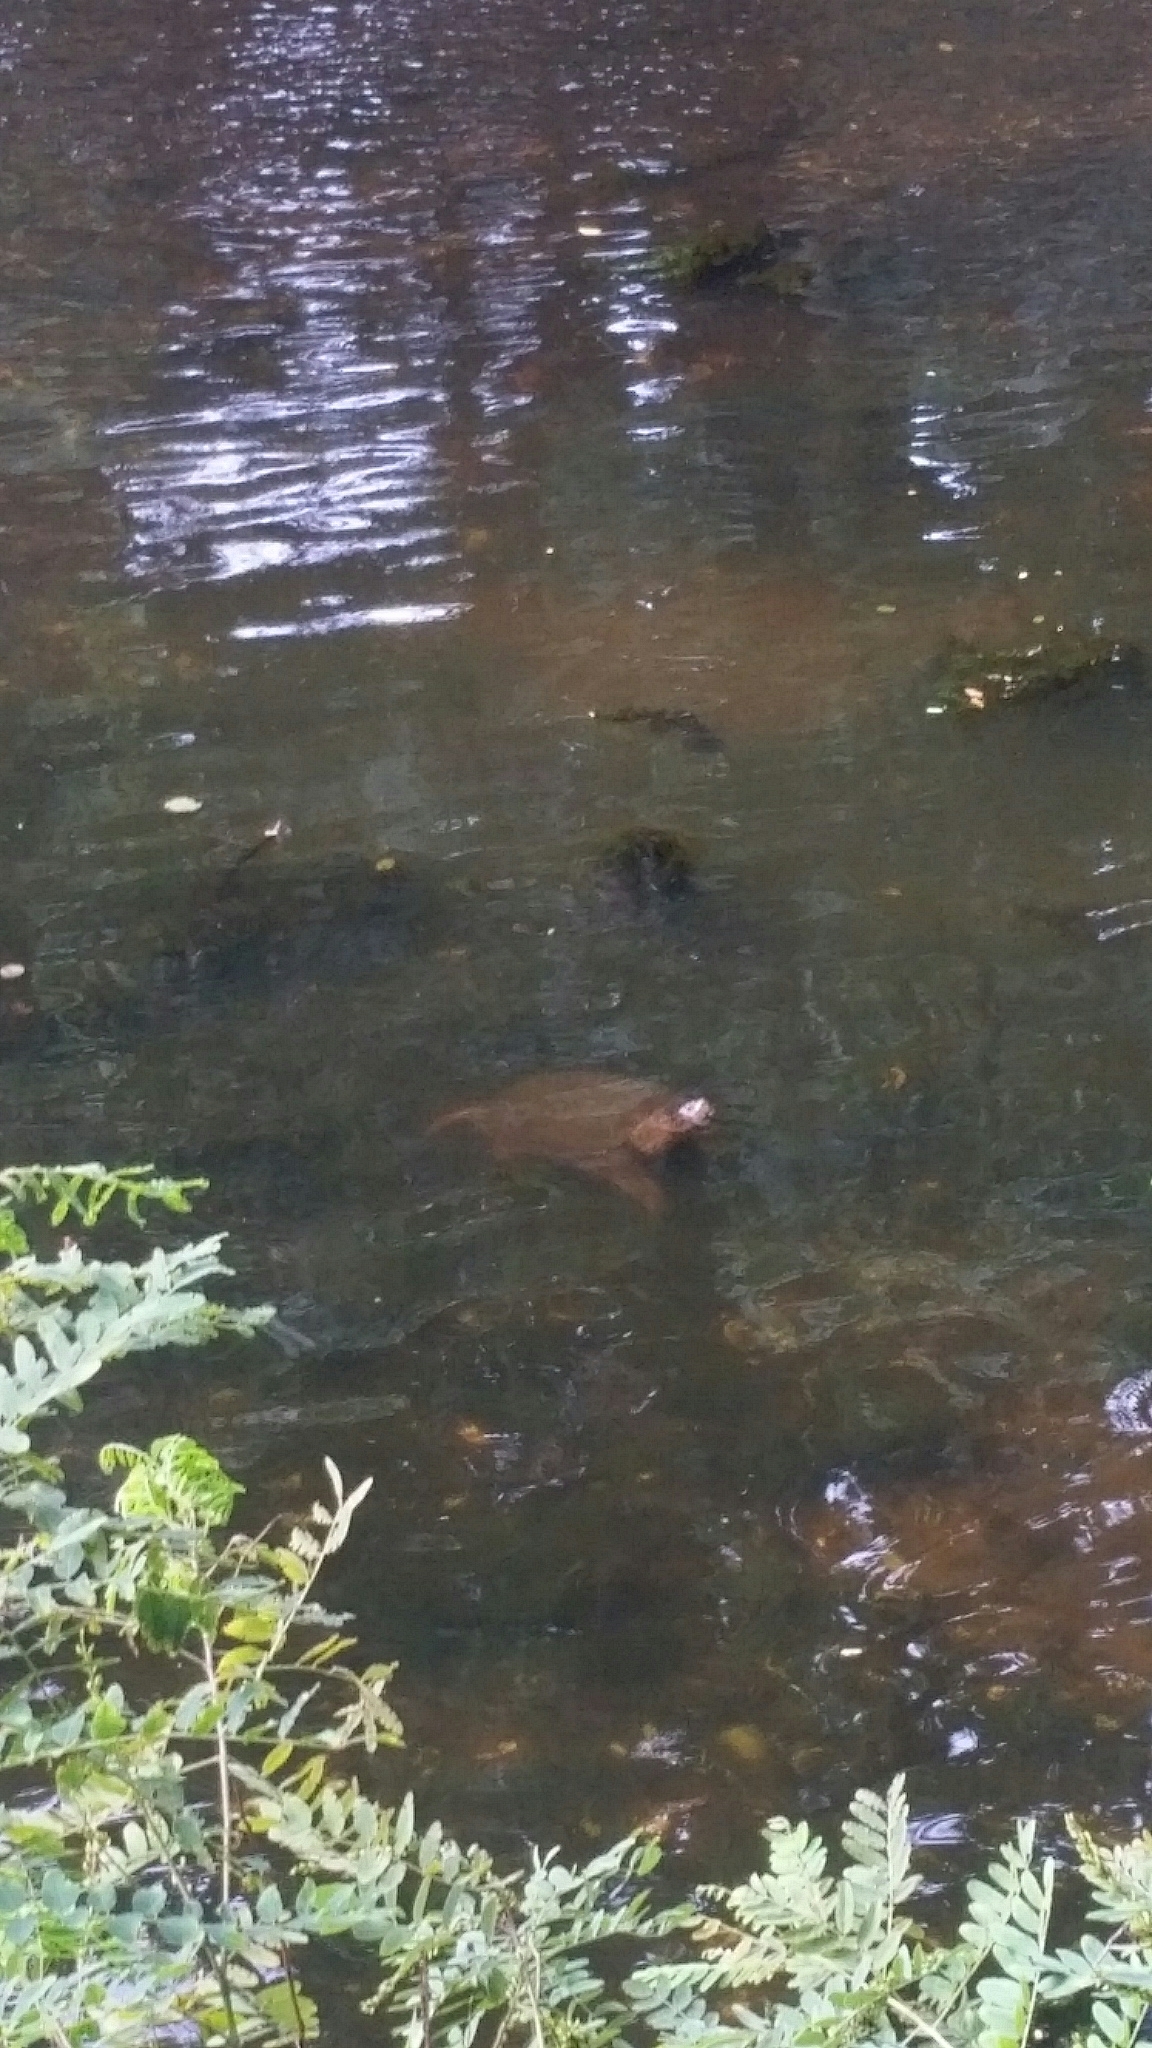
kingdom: Animalia
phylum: Chordata
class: Testudines
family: Chelydridae
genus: Chelydra
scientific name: Chelydra serpentina
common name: Common snapping turtle
